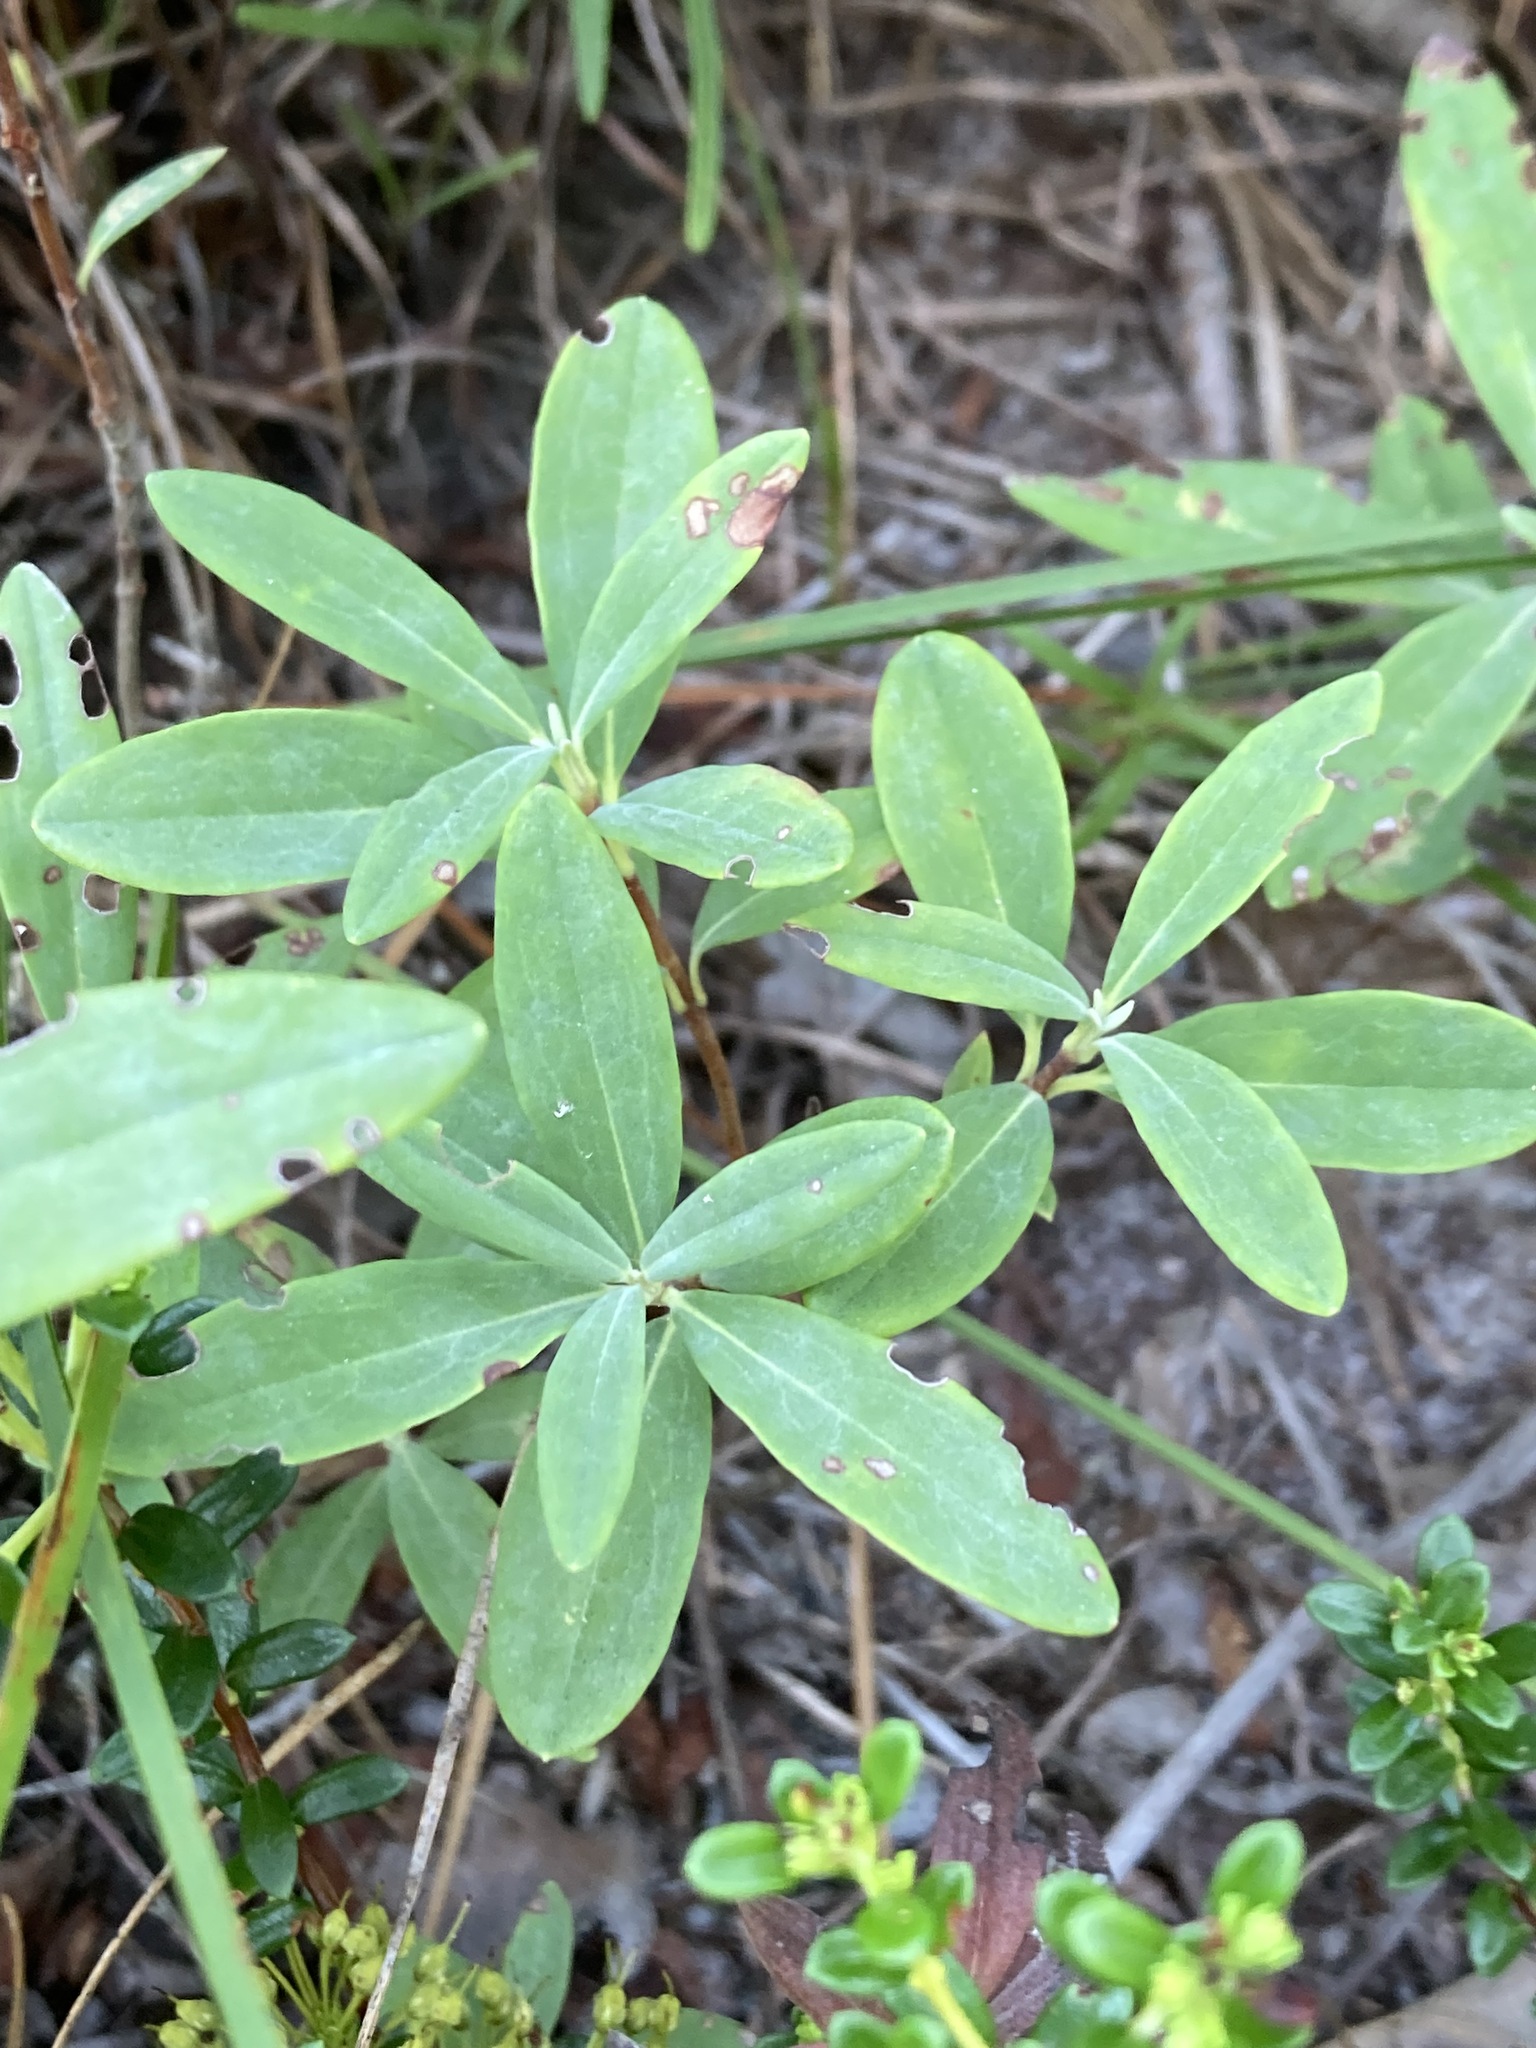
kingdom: Plantae
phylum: Tracheophyta
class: Magnoliopsida
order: Ericales
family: Ericaceae
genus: Kalmia
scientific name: Kalmia angustifolia
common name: Sheep-laurel
